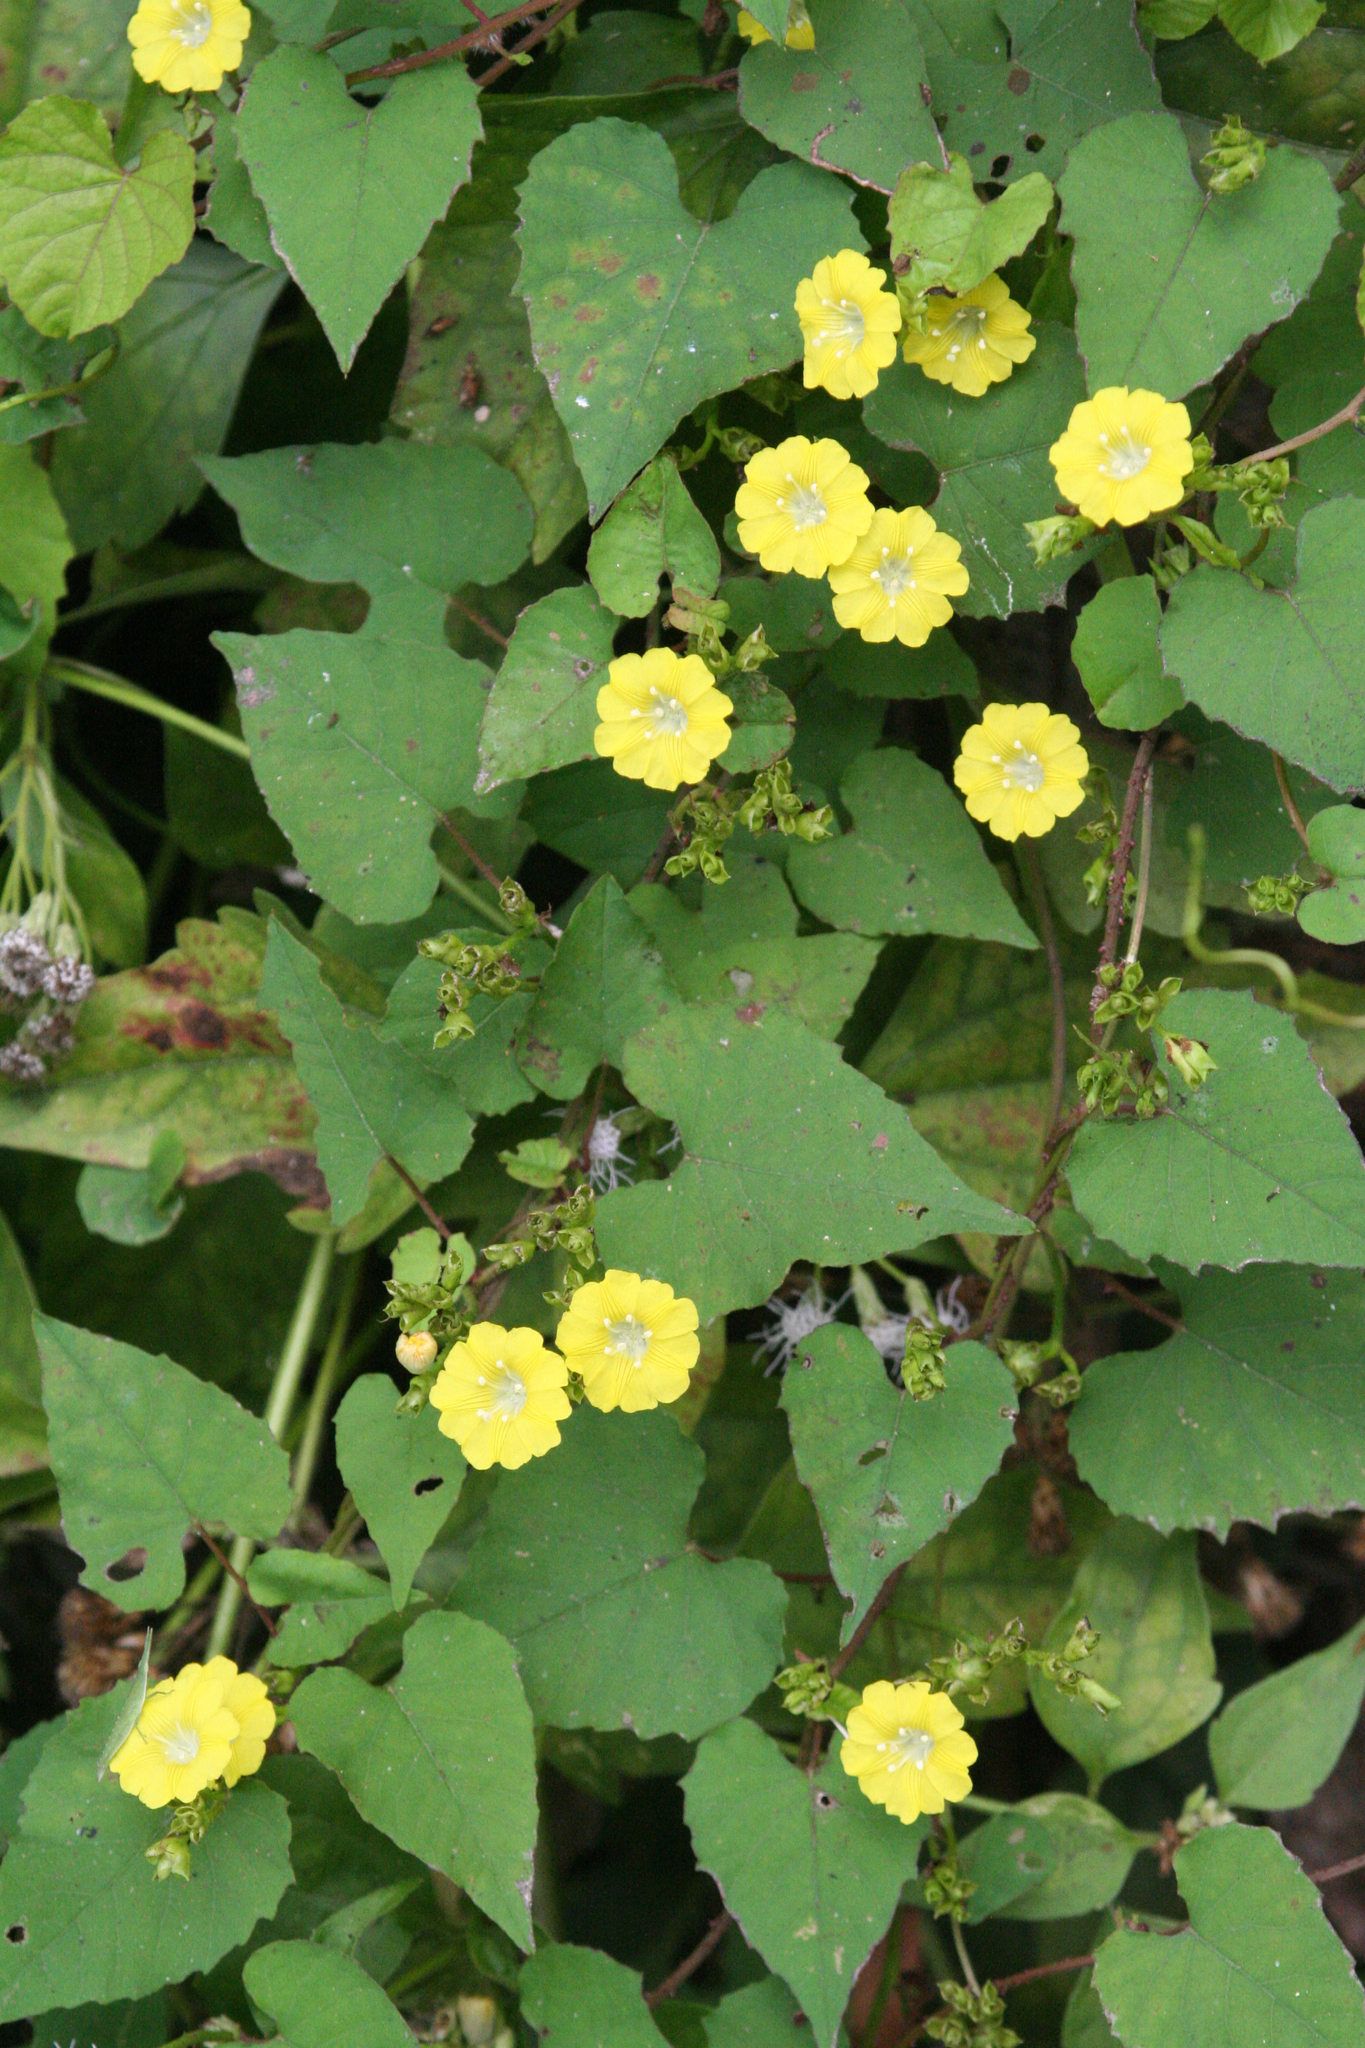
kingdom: Plantae
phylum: Tracheophyta
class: Magnoliopsida
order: Solanales
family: Convolvulaceae
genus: Merremia
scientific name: Merremia hederacea
